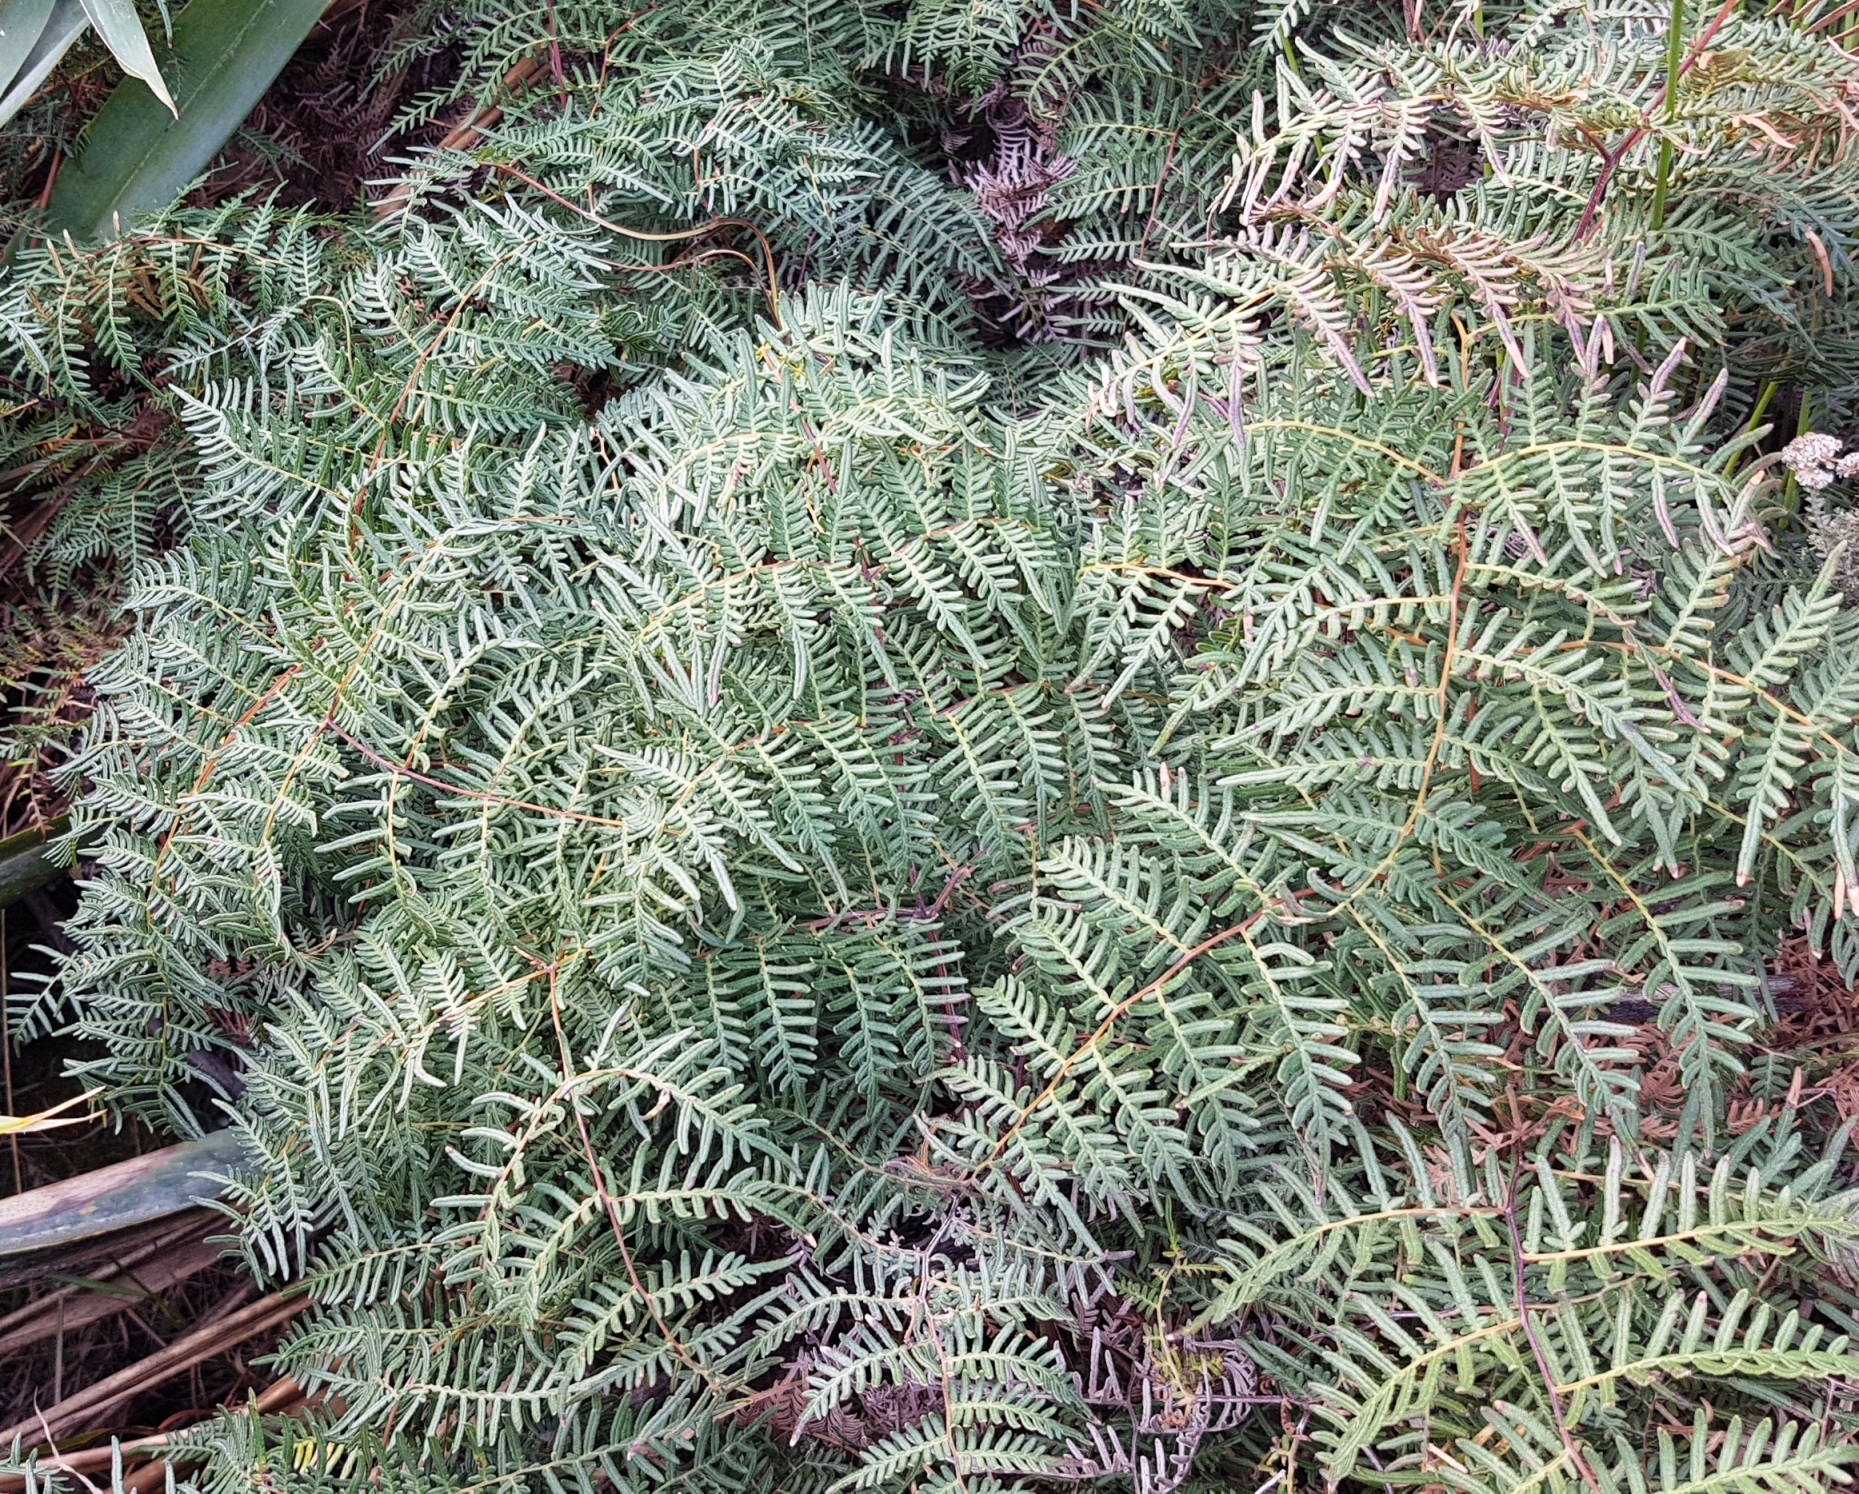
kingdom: Plantae
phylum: Tracheophyta
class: Polypodiopsida
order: Polypodiales
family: Dennstaedtiaceae
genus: Pteridium
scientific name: Pteridium esculentum
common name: Bracken fern
